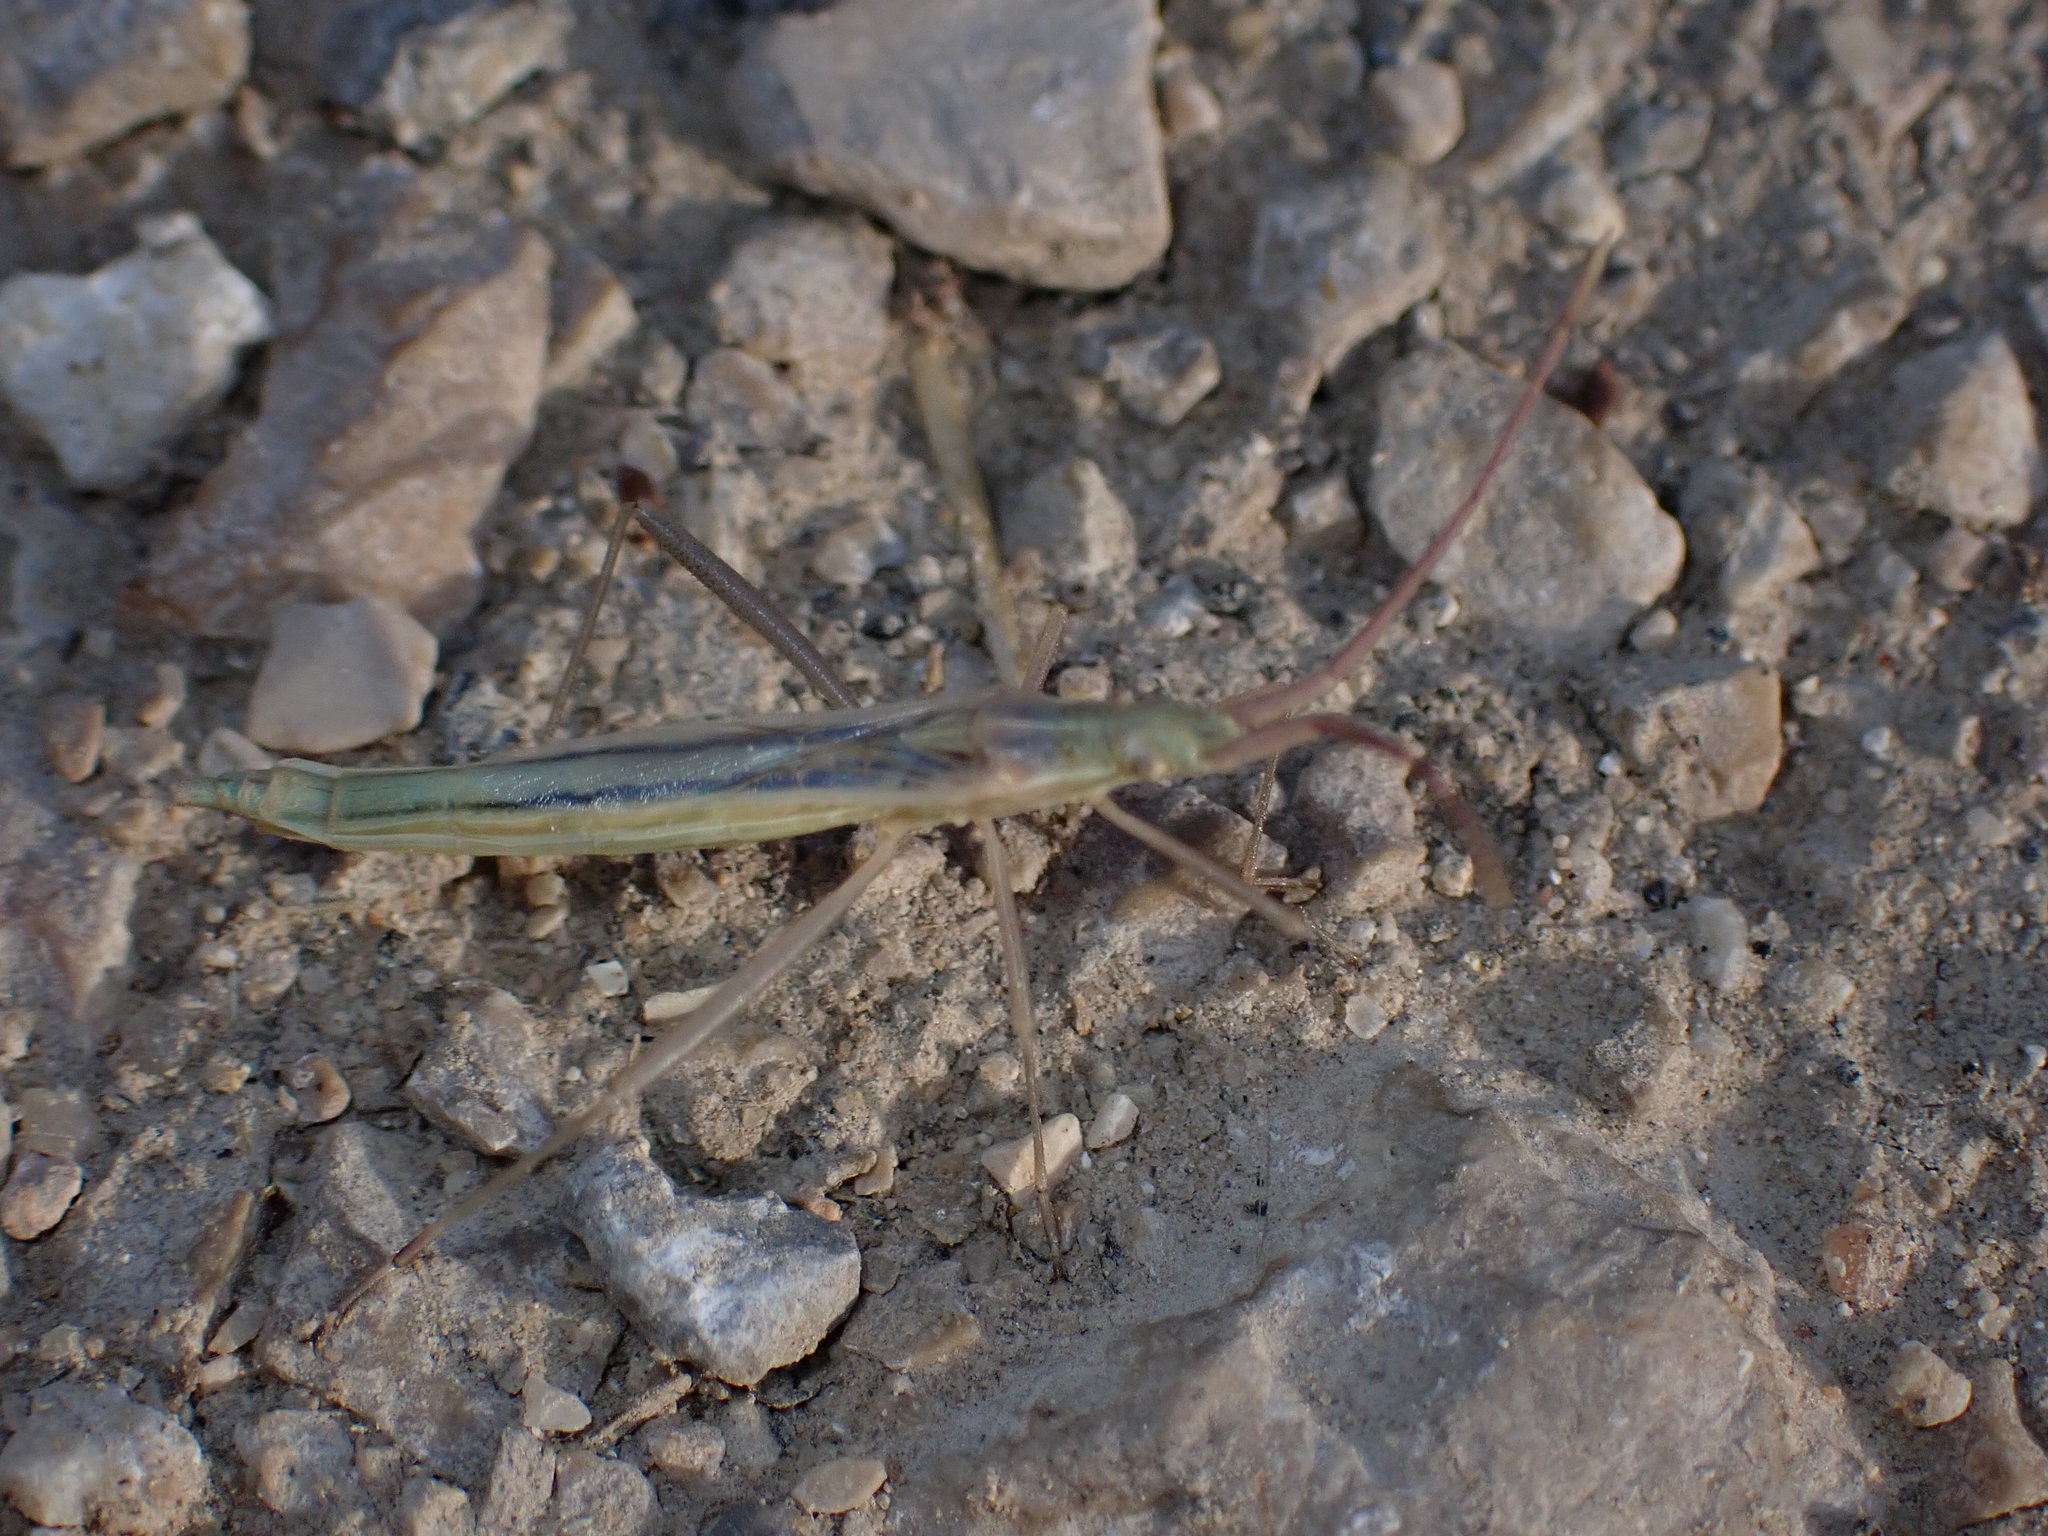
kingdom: Animalia
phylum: Arthropoda
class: Insecta
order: Hemiptera
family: Rhopalidae
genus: Chorosoma
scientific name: Chorosoma schillingii
